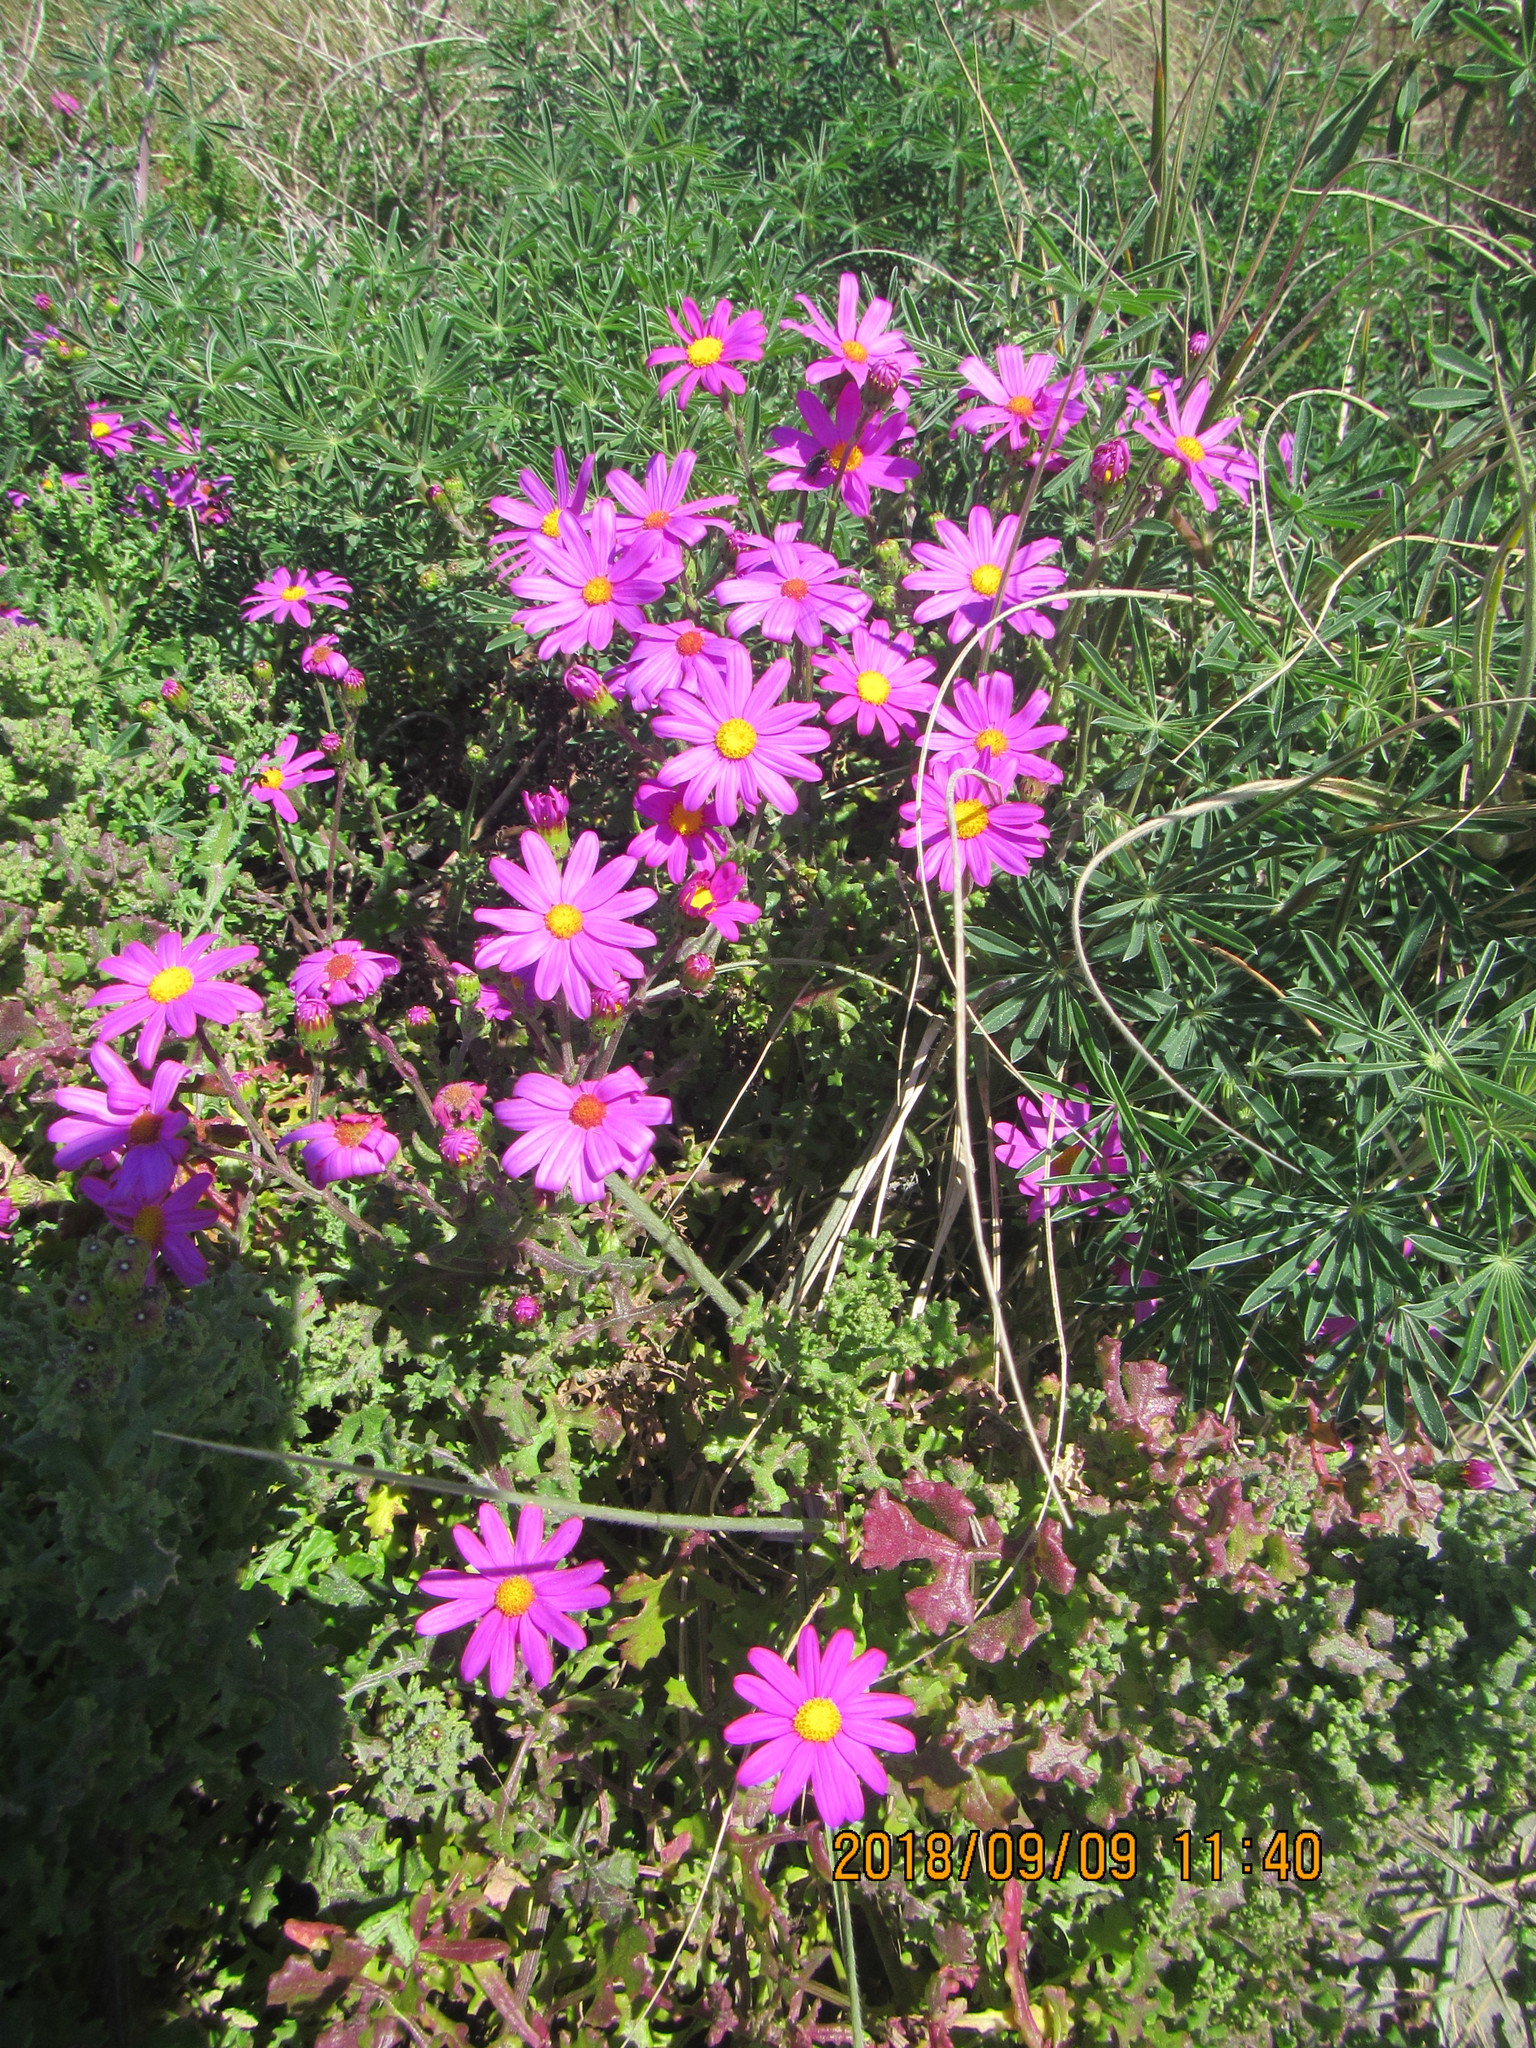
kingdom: Plantae
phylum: Tracheophyta
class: Magnoliopsida
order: Asterales
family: Asteraceae
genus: Senecio
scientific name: Senecio elegans
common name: Purple groundsel
